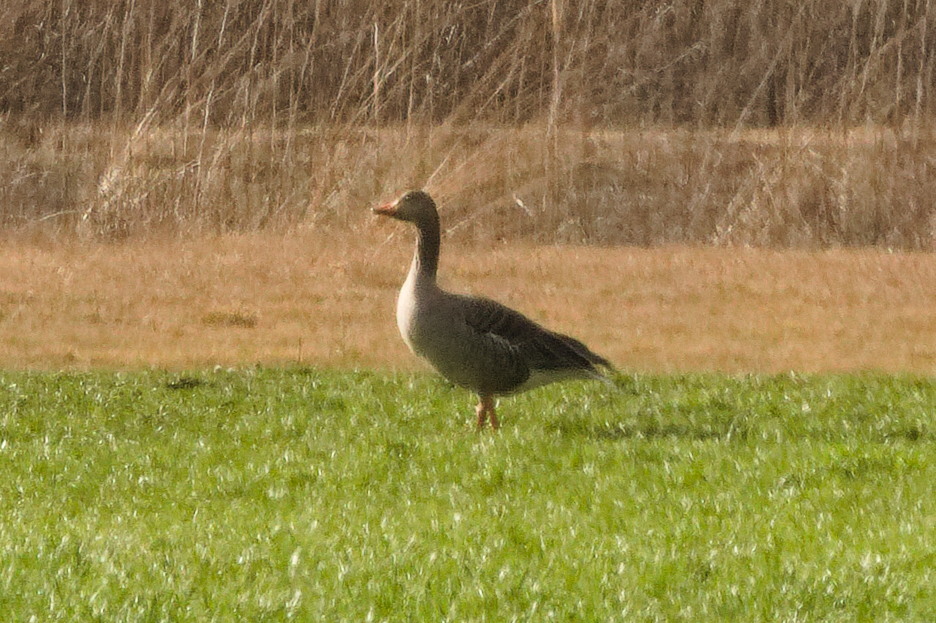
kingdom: Animalia
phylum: Chordata
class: Aves
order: Anseriformes
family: Anatidae
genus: Anser
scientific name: Anser anser
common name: Greylag goose
